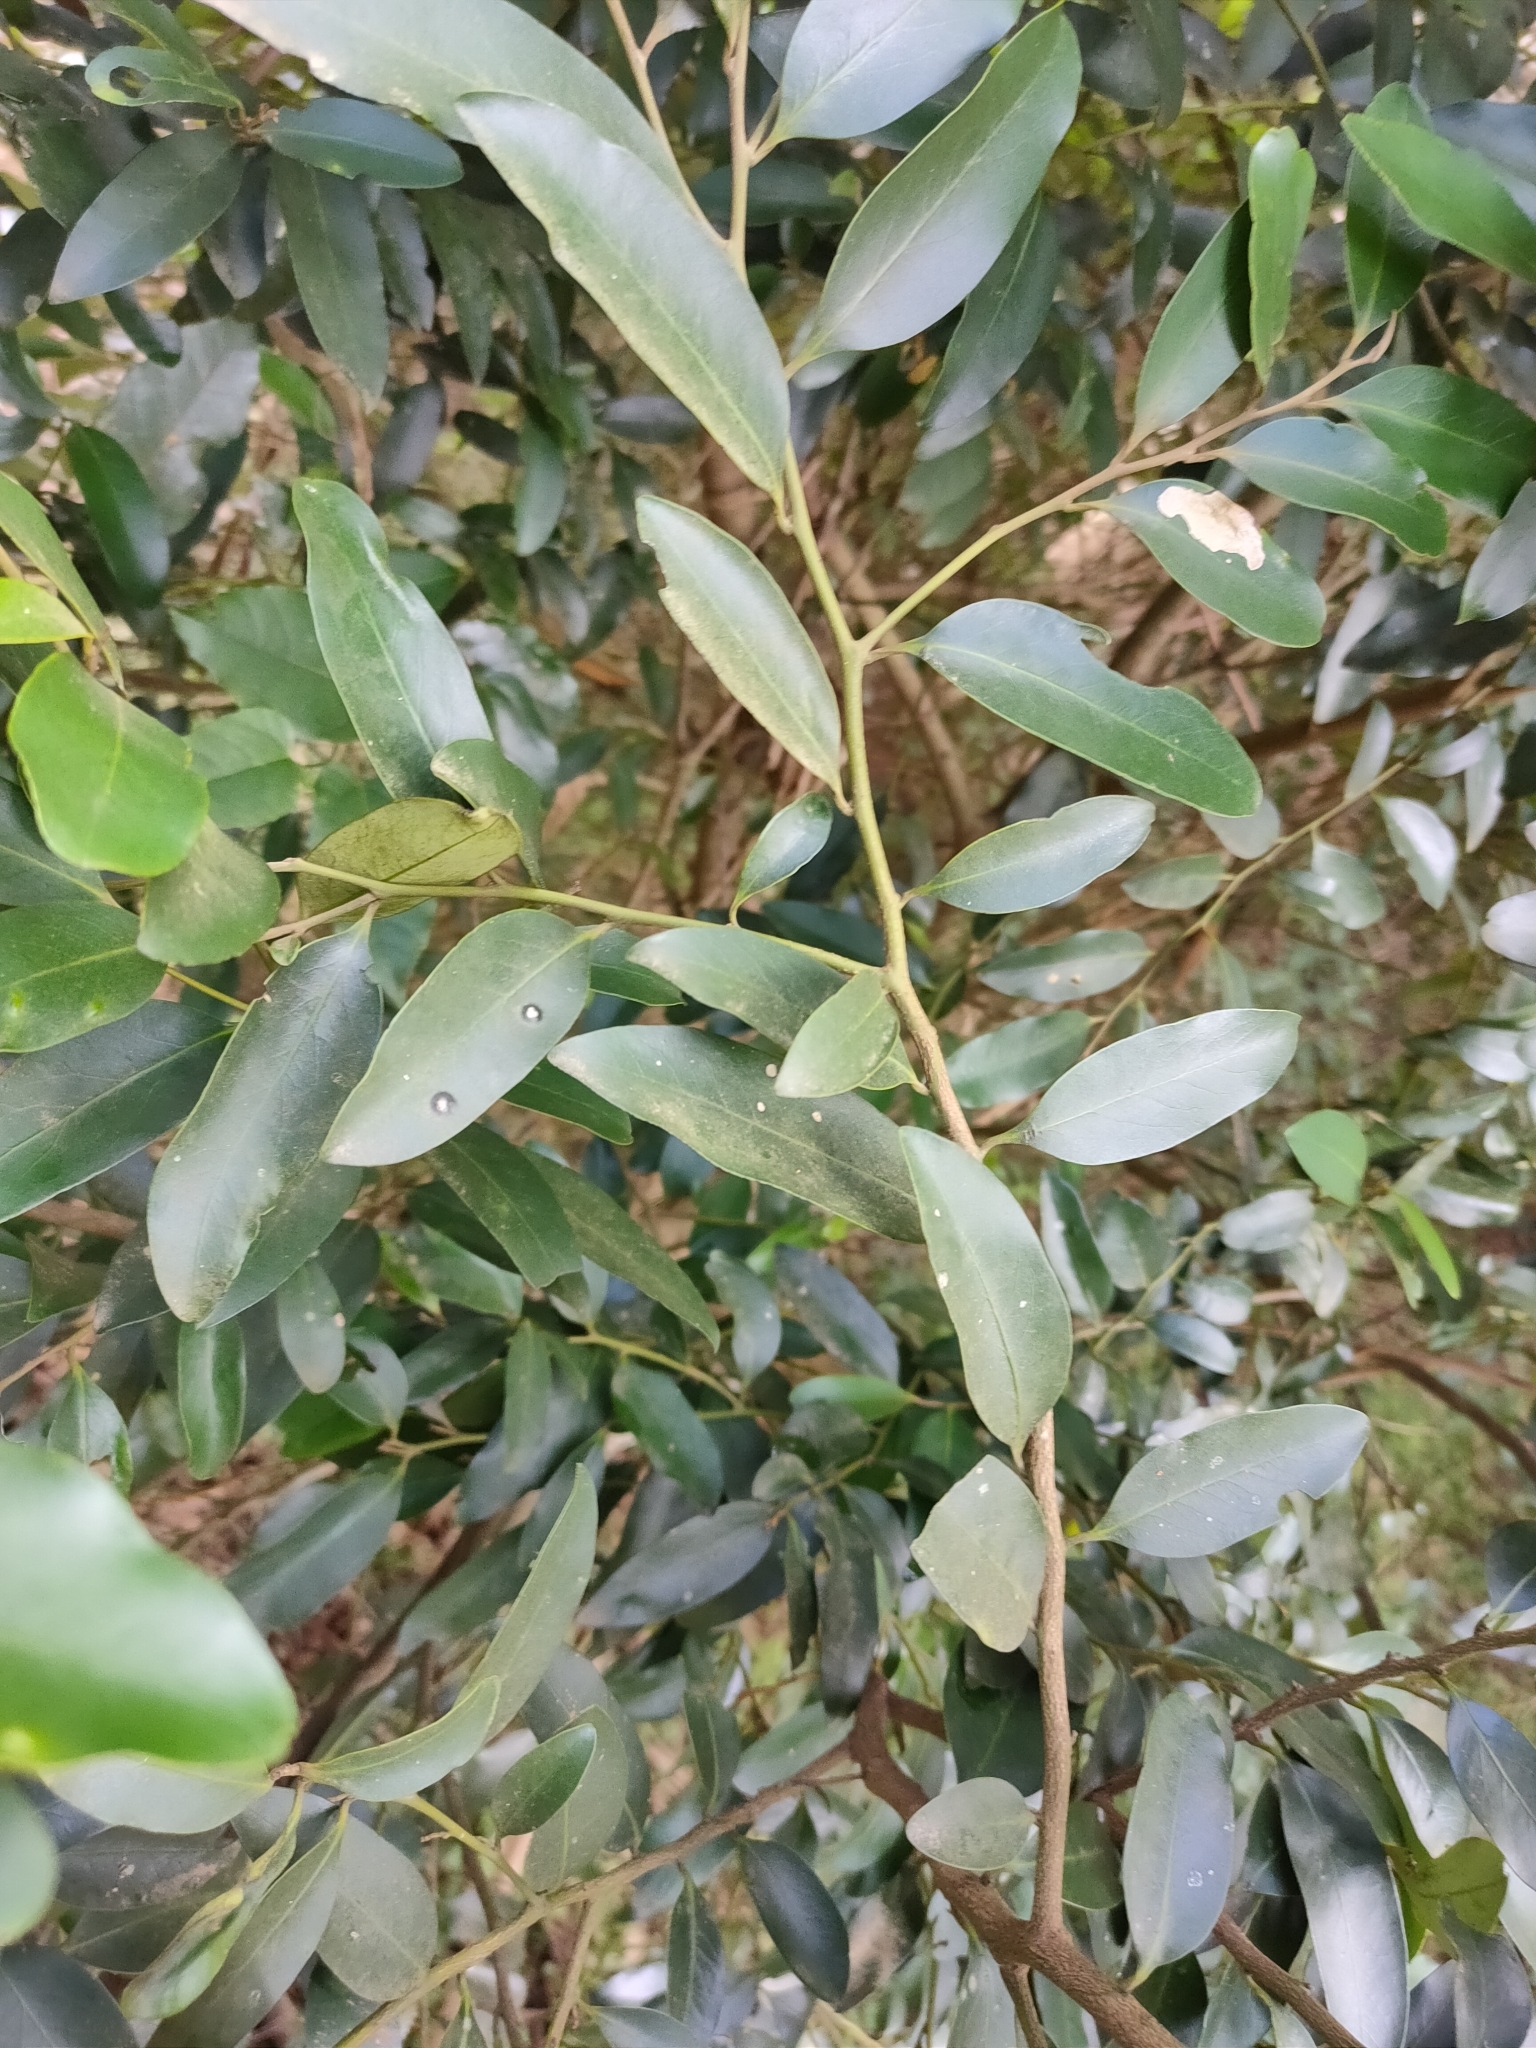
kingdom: Plantae
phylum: Tracheophyta
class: Magnoliopsida
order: Ericales
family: Ebenaceae
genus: Diospyros
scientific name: Diospyros australis
